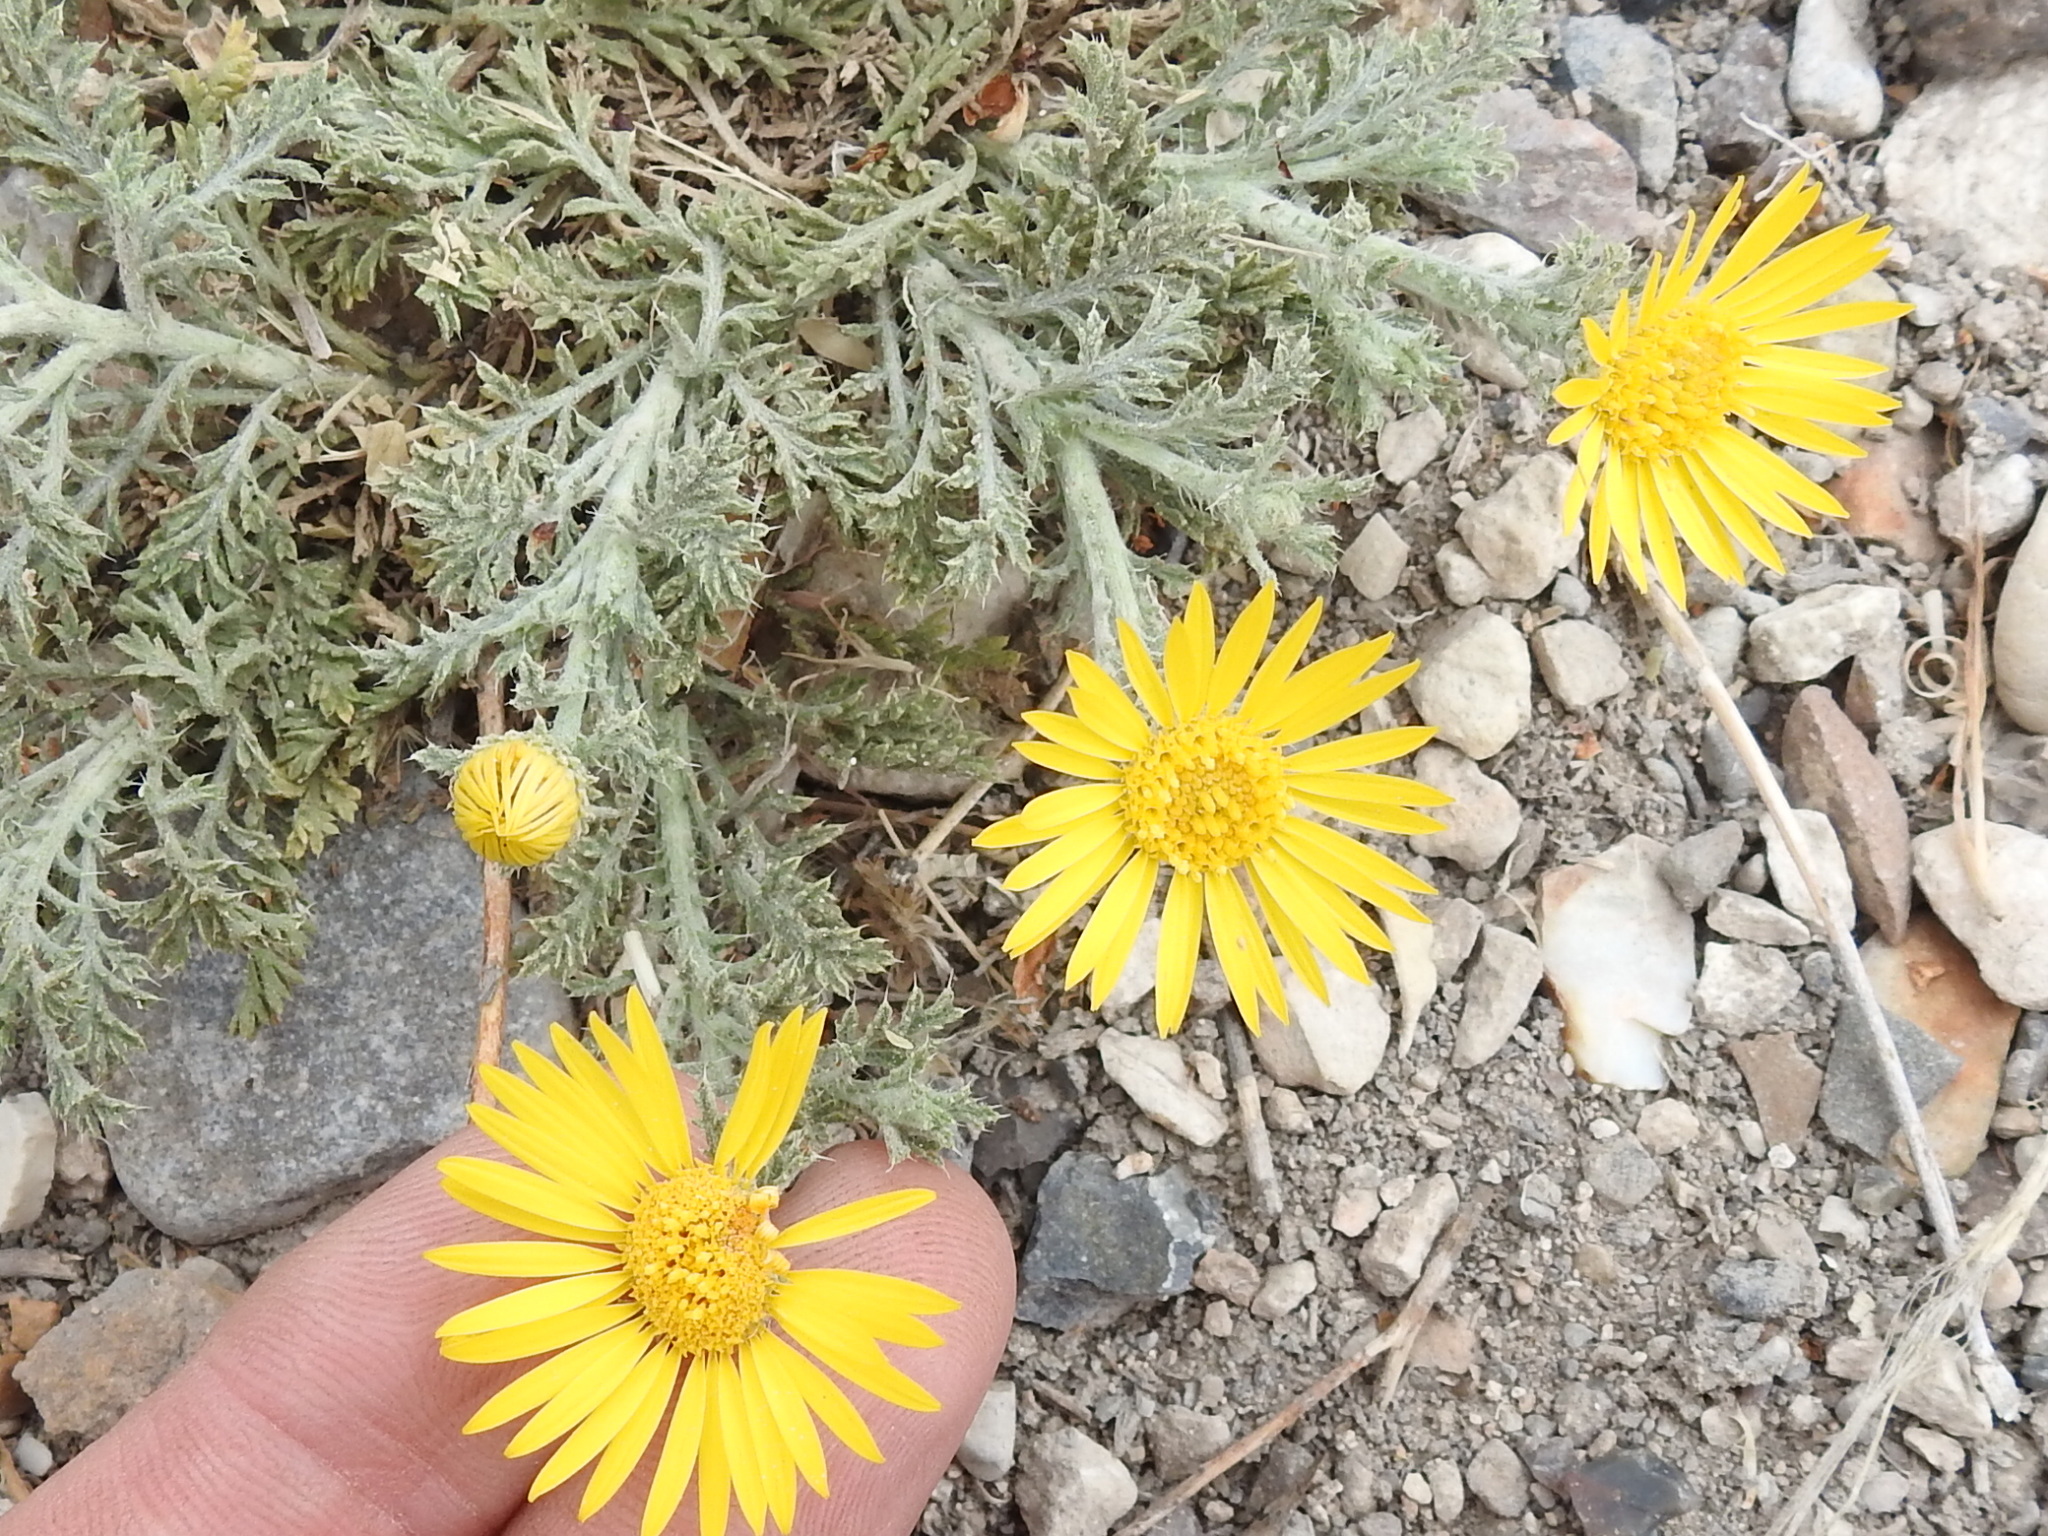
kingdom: Plantae
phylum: Tracheophyta
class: Magnoliopsida
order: Asterales
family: Asteraceae
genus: Xanthisma
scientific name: Xanthisma spinulosum
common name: Spiny goldenweed
